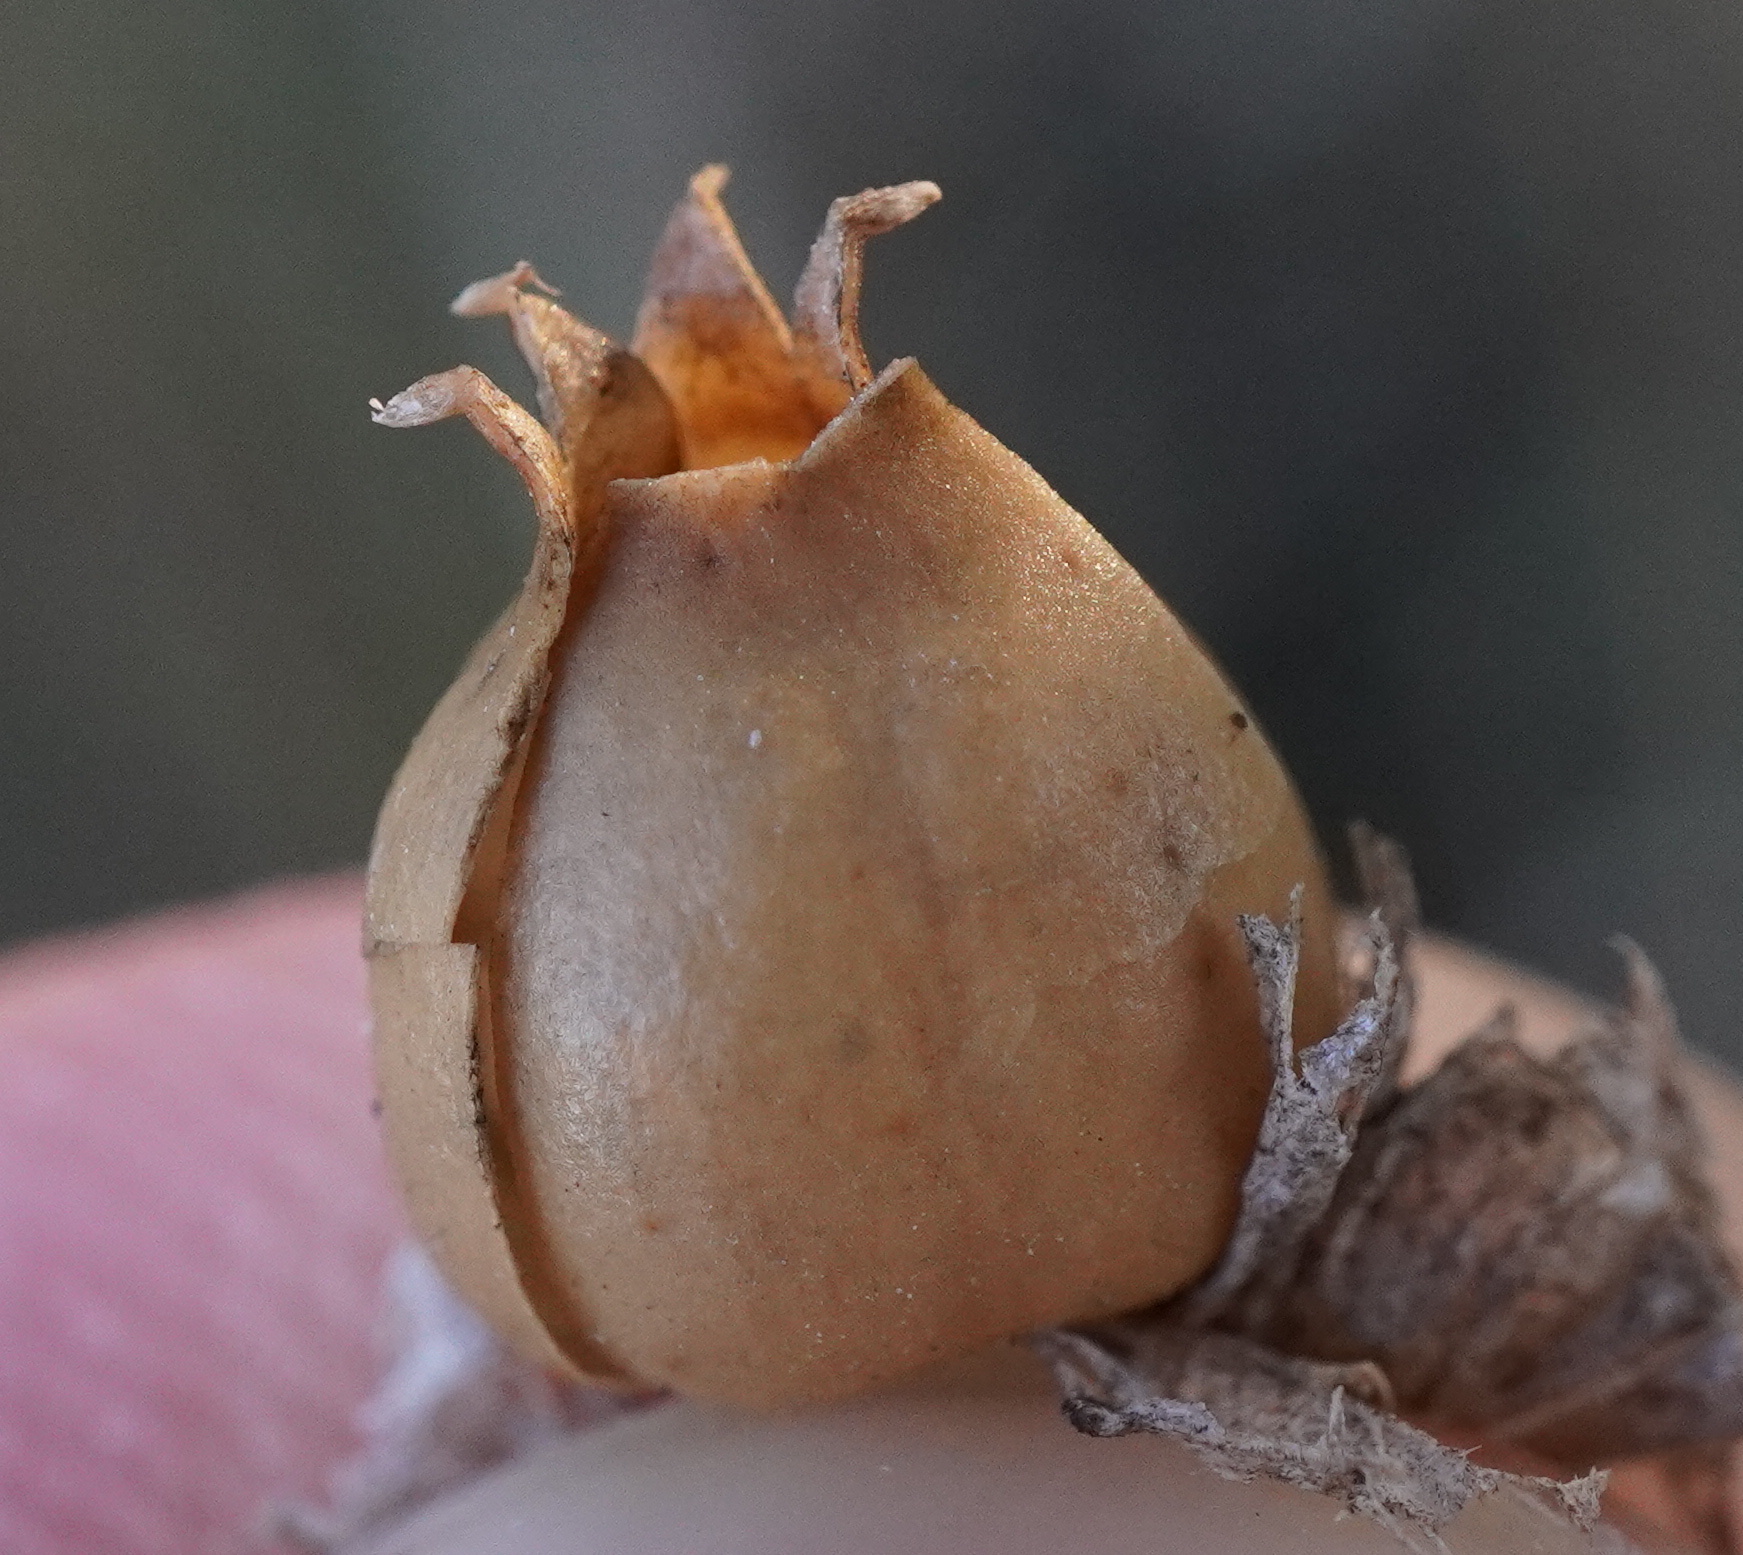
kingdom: Plantae
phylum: Tracheophyta
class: Magnoliopsida
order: Caryophyllales
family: Caryophyllaceae
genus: Silene
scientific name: Silene vulgaris
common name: Bladder campion
